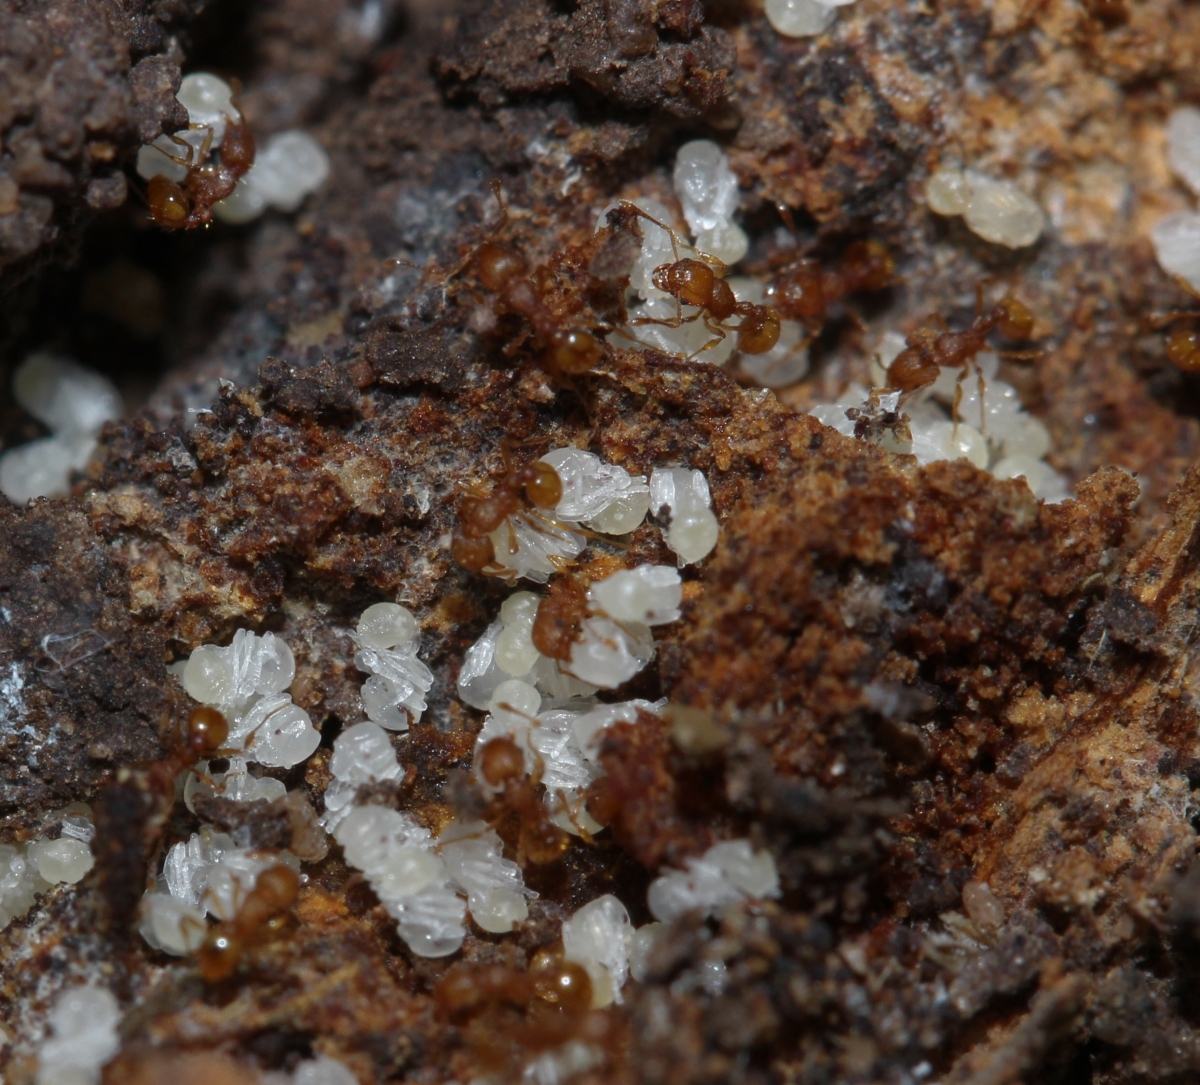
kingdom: Animalia
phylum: Arthropoda
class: Insecta
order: Hymenoptera
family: Formicidae
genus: Wasmannia
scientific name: Wasmannia
